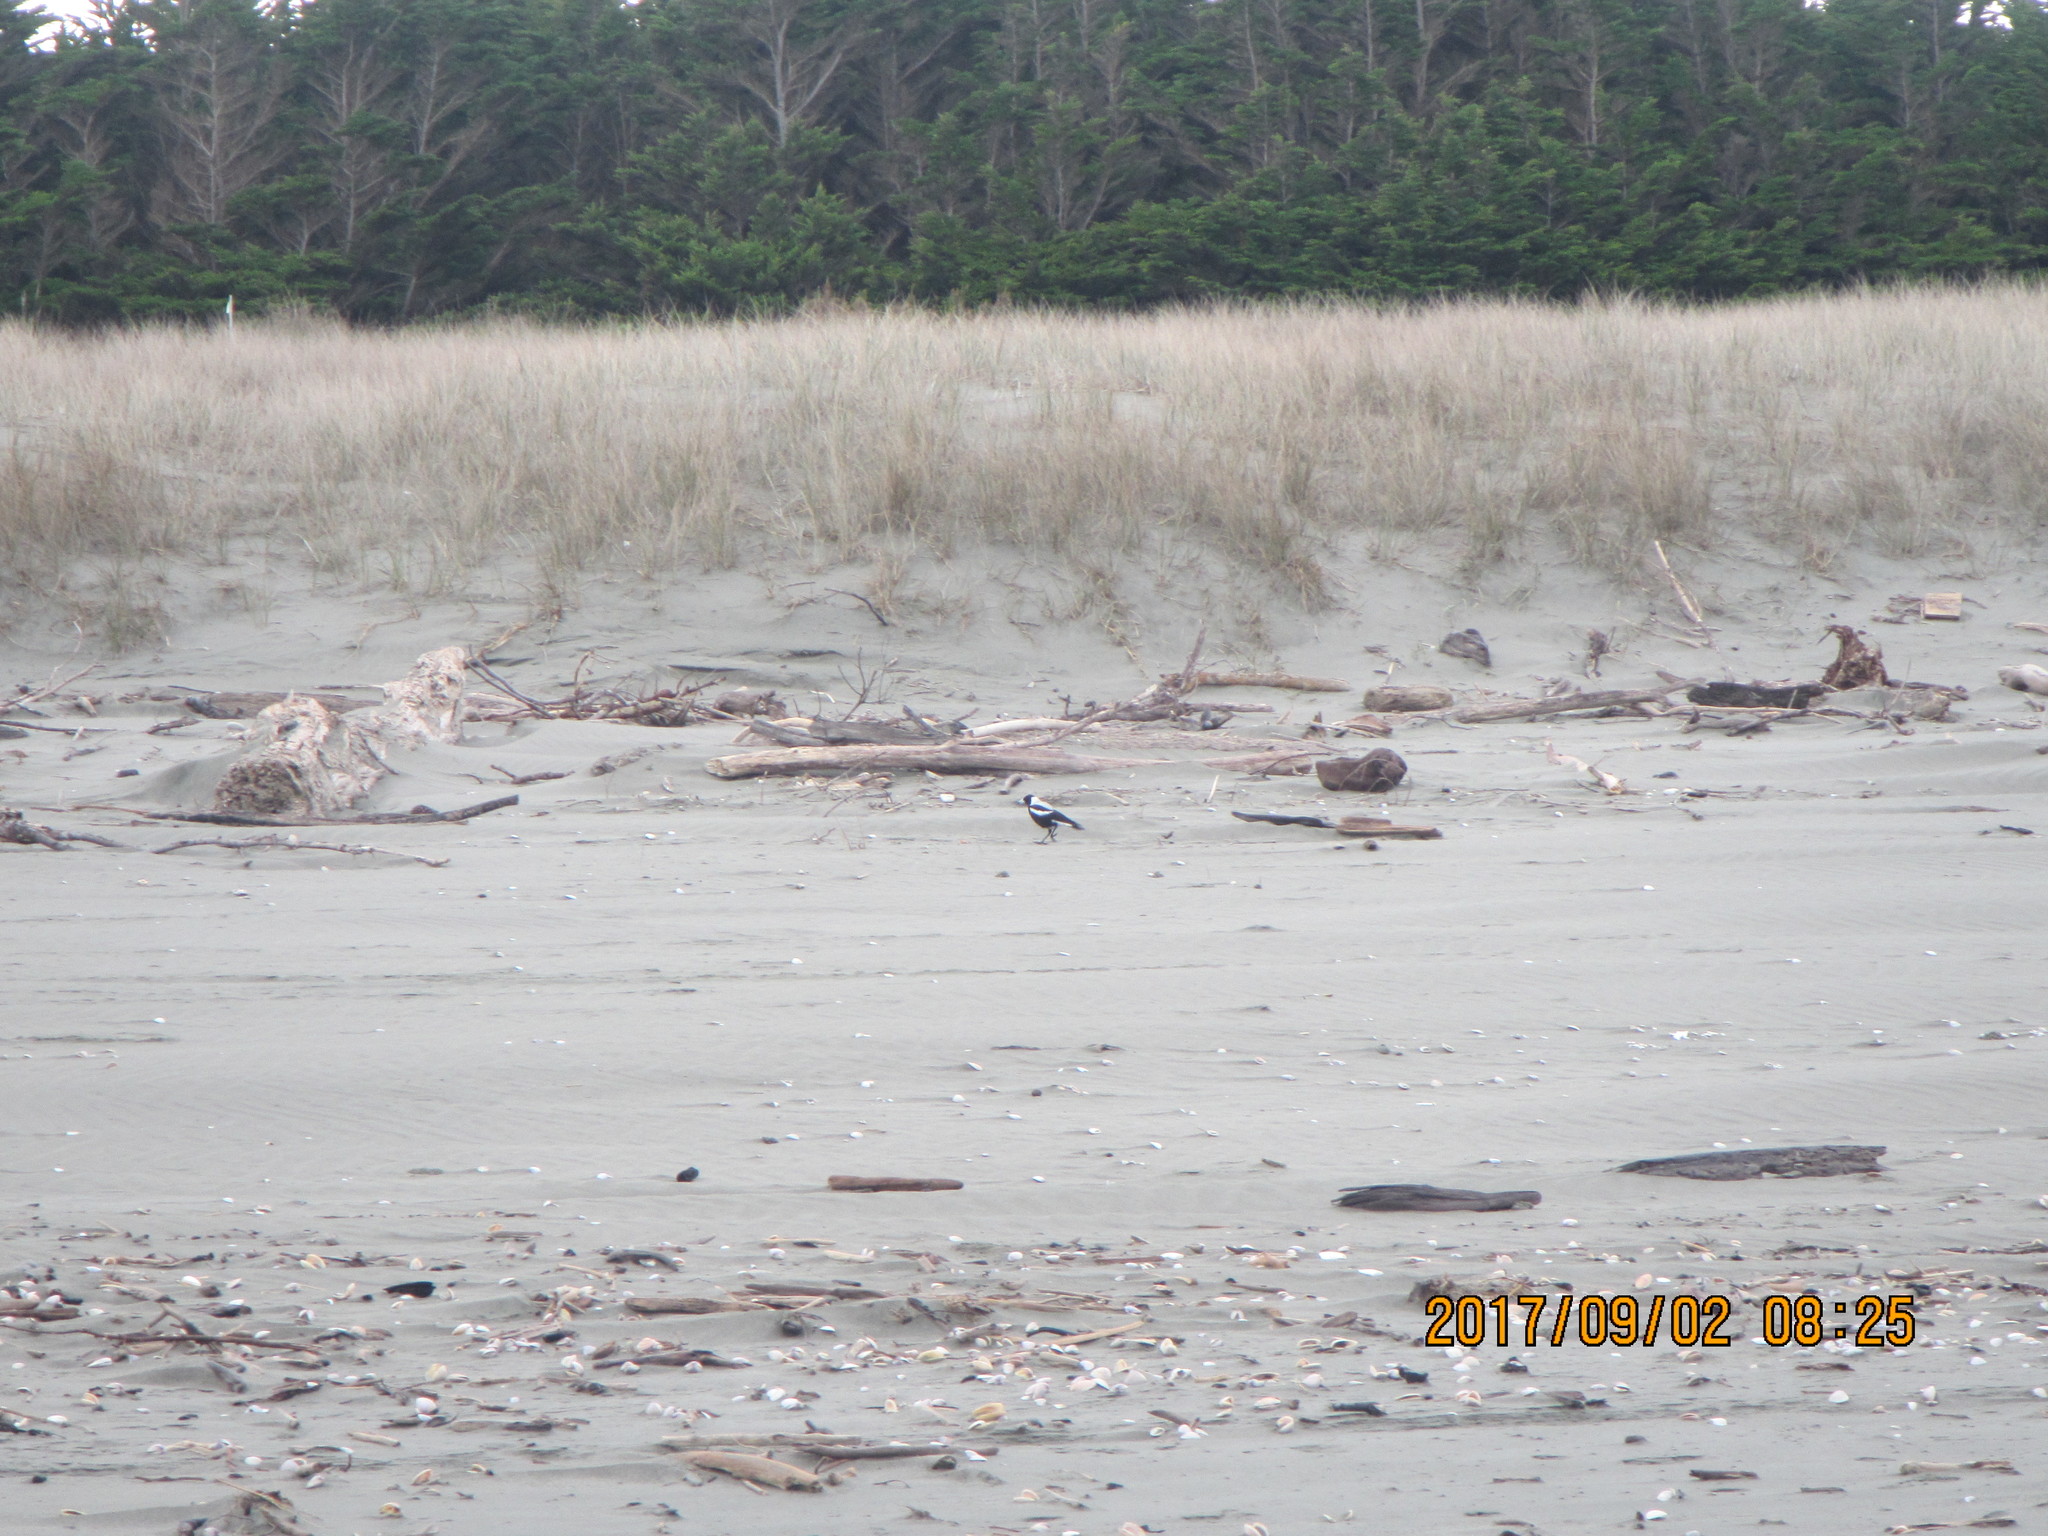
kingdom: Animalia
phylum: Chordata
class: Aves
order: Passeriformes
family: Cracticidae
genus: Gymnorhina
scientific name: Gymnorhina tibicen
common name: Australian magpie
